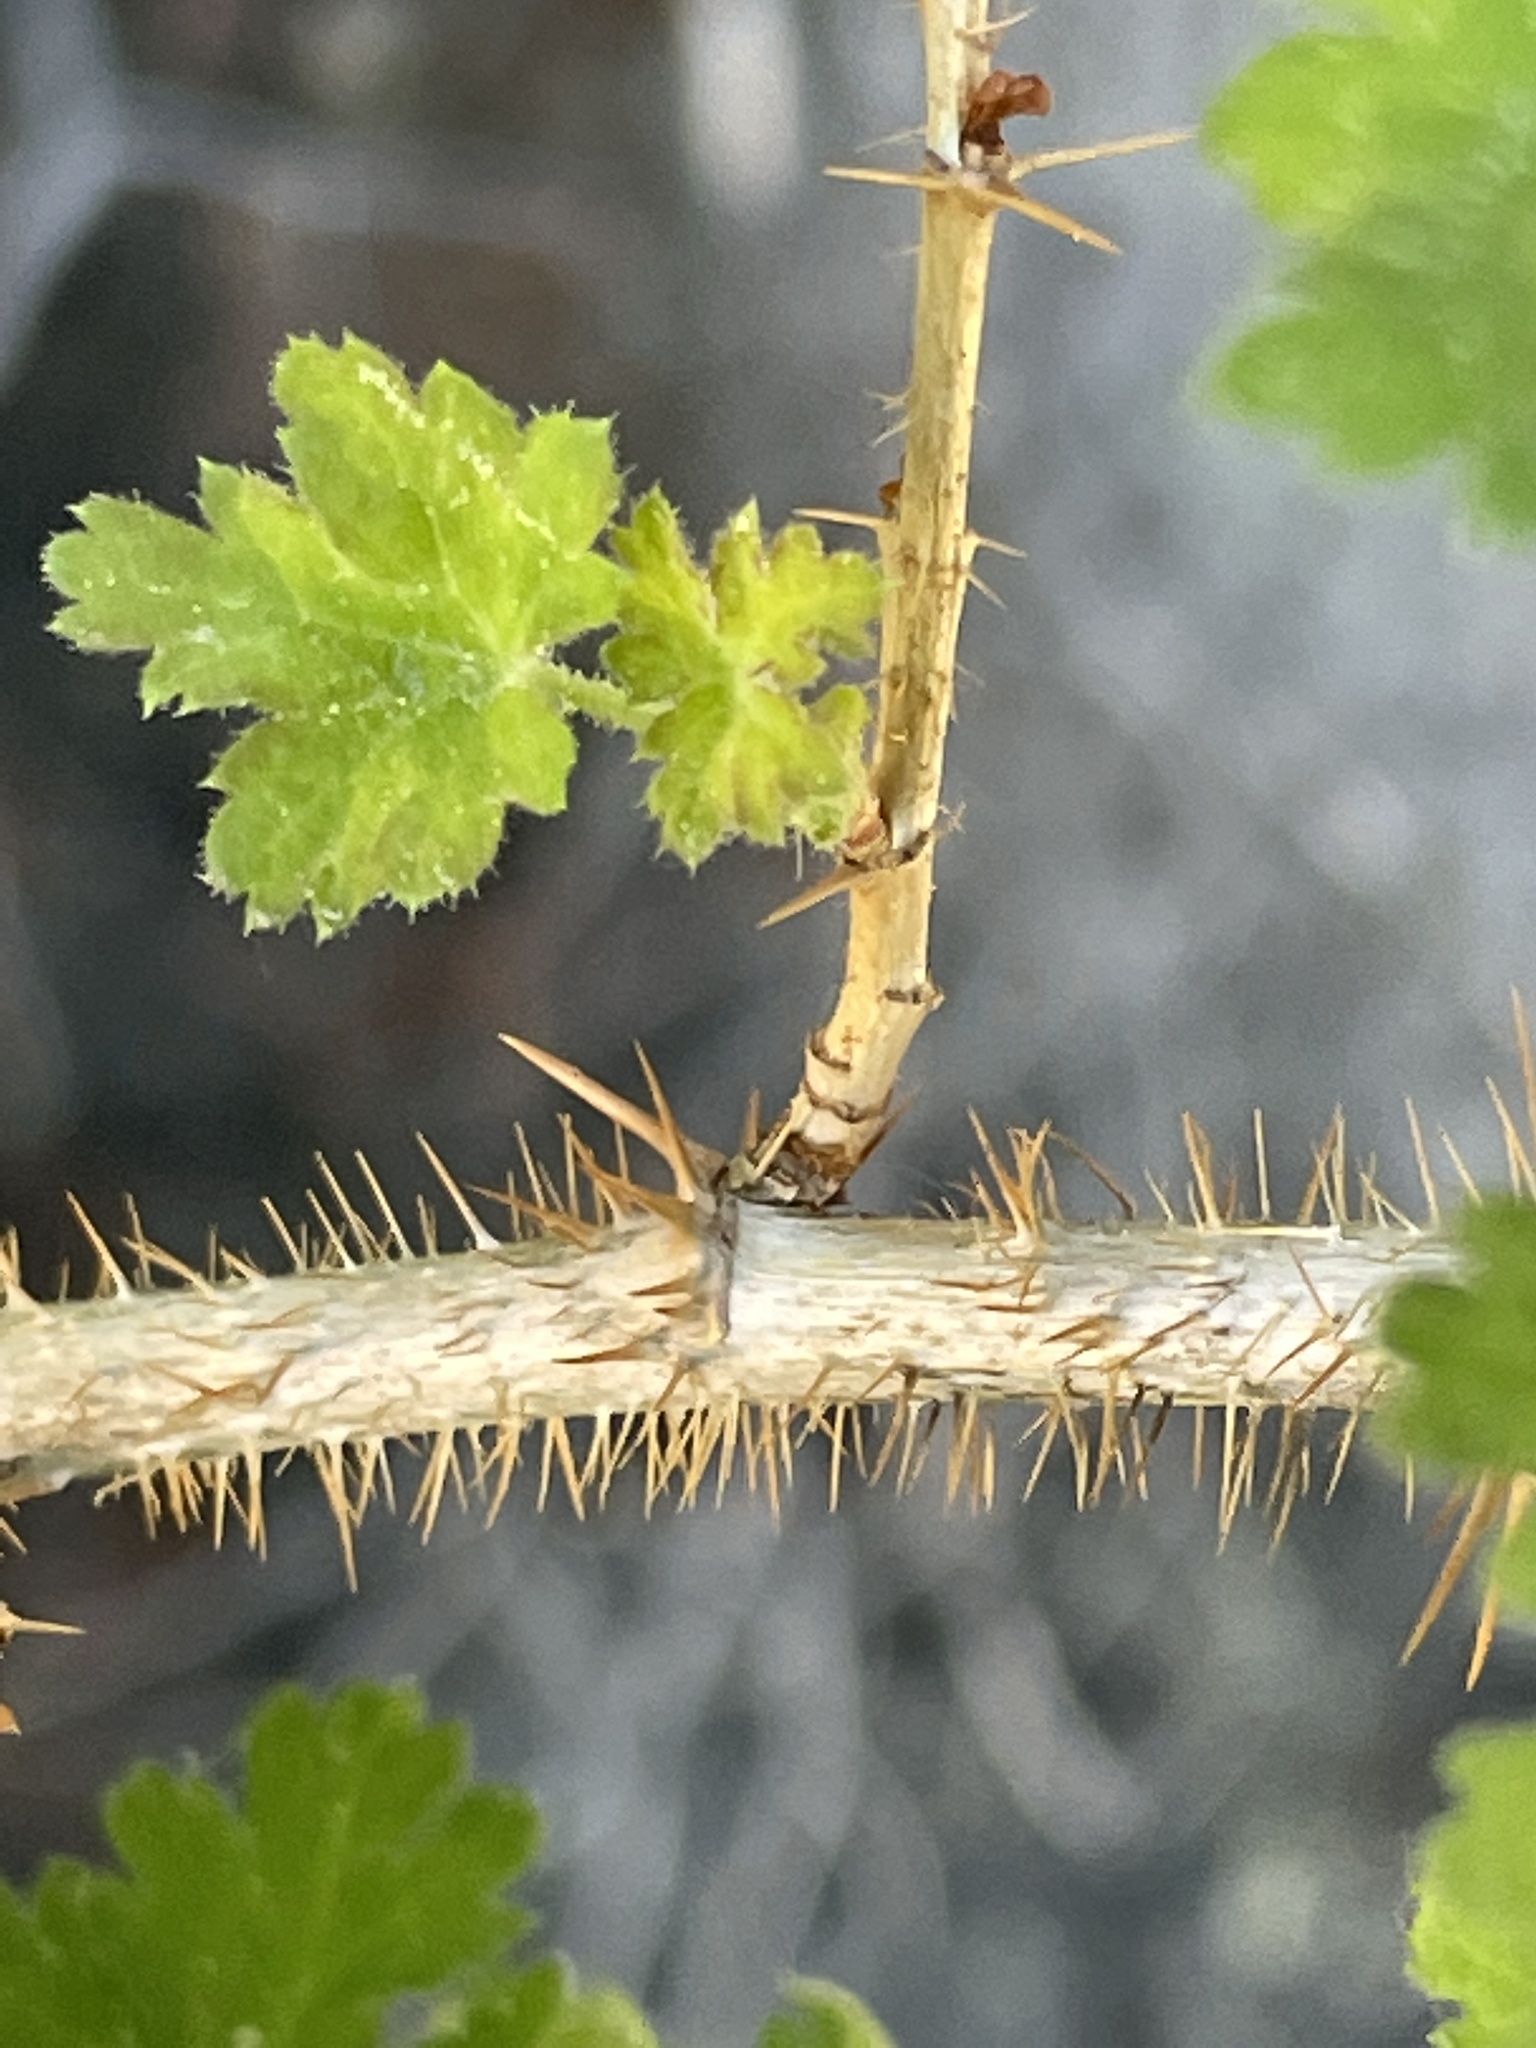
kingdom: Plantae
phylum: Tracheophyta
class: Magnoliopsida
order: Saxifragales
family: Grossulariaceae
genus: Ribes
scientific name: Ribes montigenum
